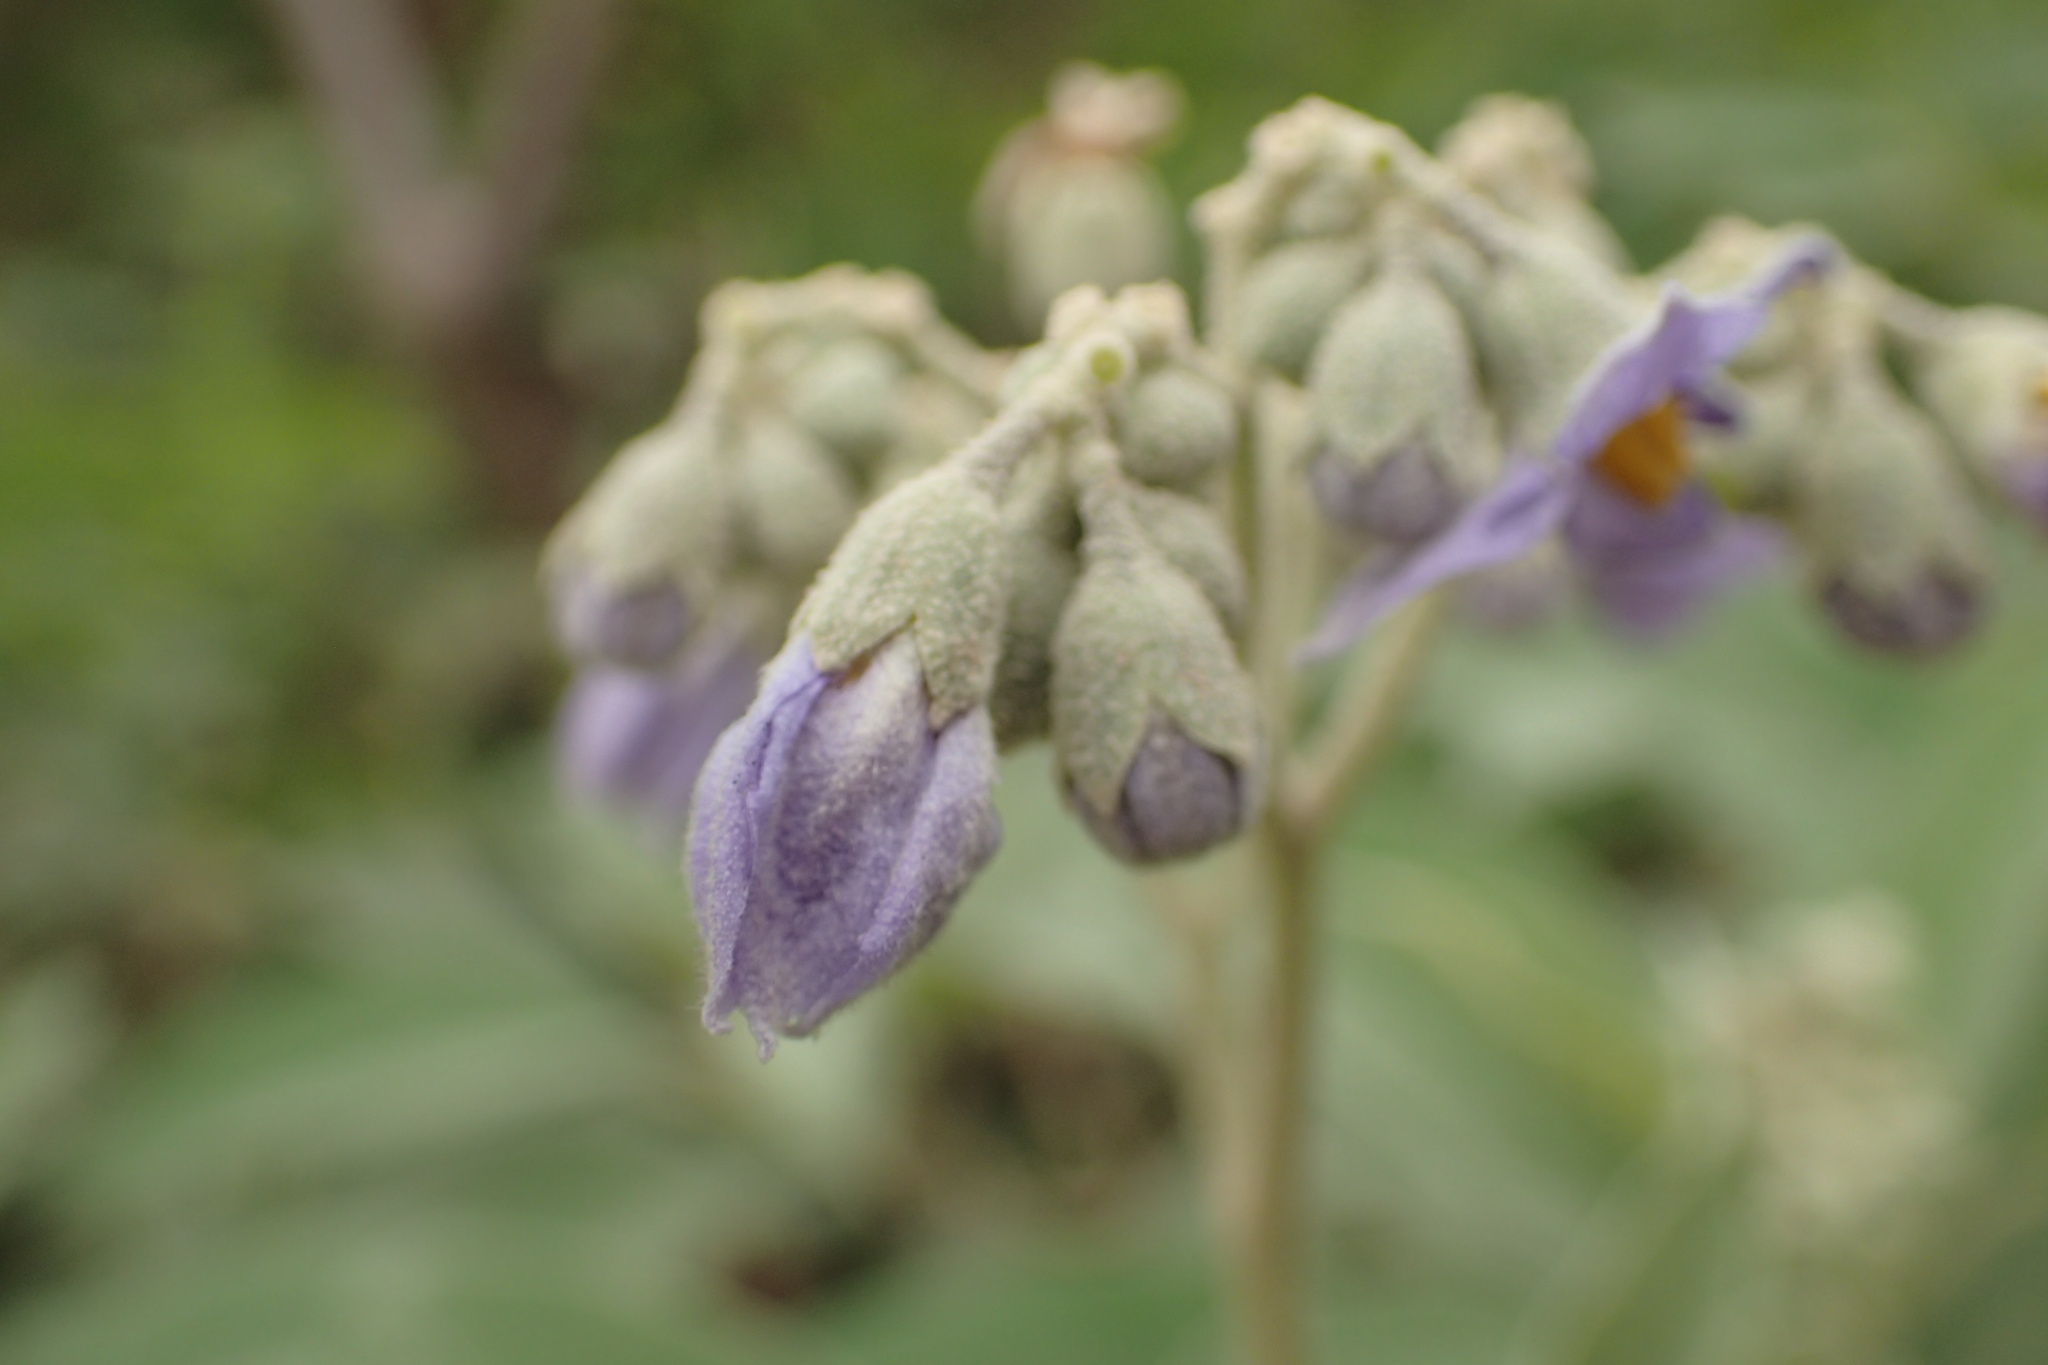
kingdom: Plantae
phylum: Tracheophyta
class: Magnoliopsida
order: Solanales
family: Solanaceae
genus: Solanum
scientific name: Solanum granulosoleprosum
